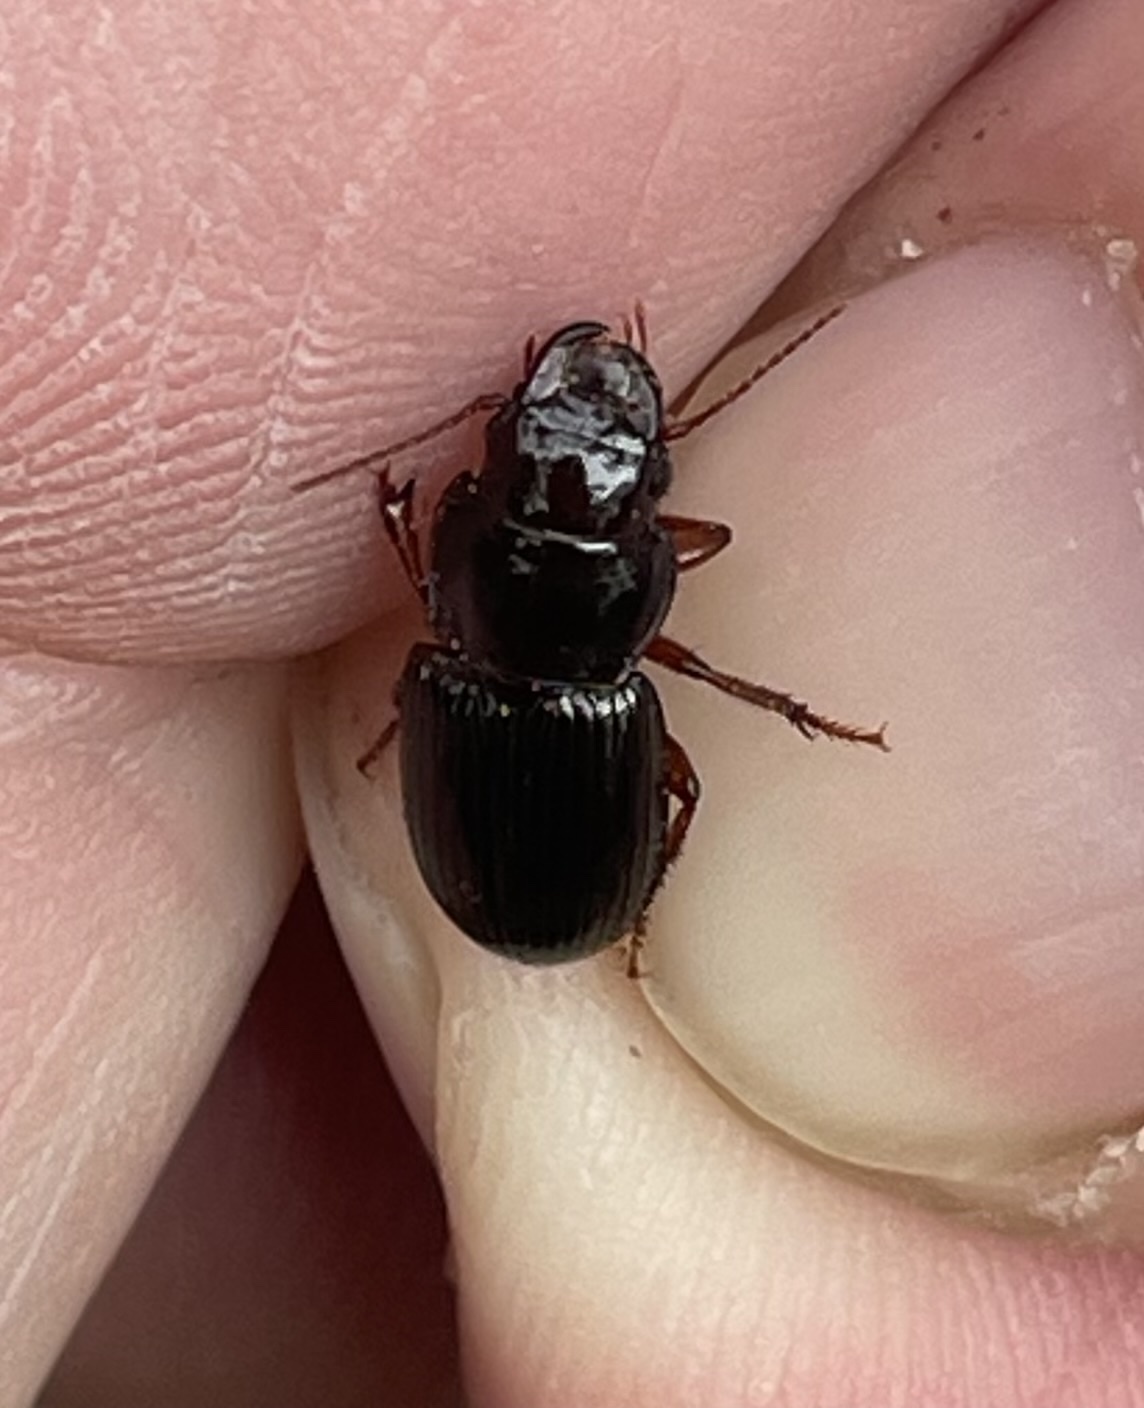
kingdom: Animalia
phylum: Arthropoda
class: Insecta
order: Coleoptera
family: Carabidae
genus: Cratacanthus
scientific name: Cratacanthus dubius
